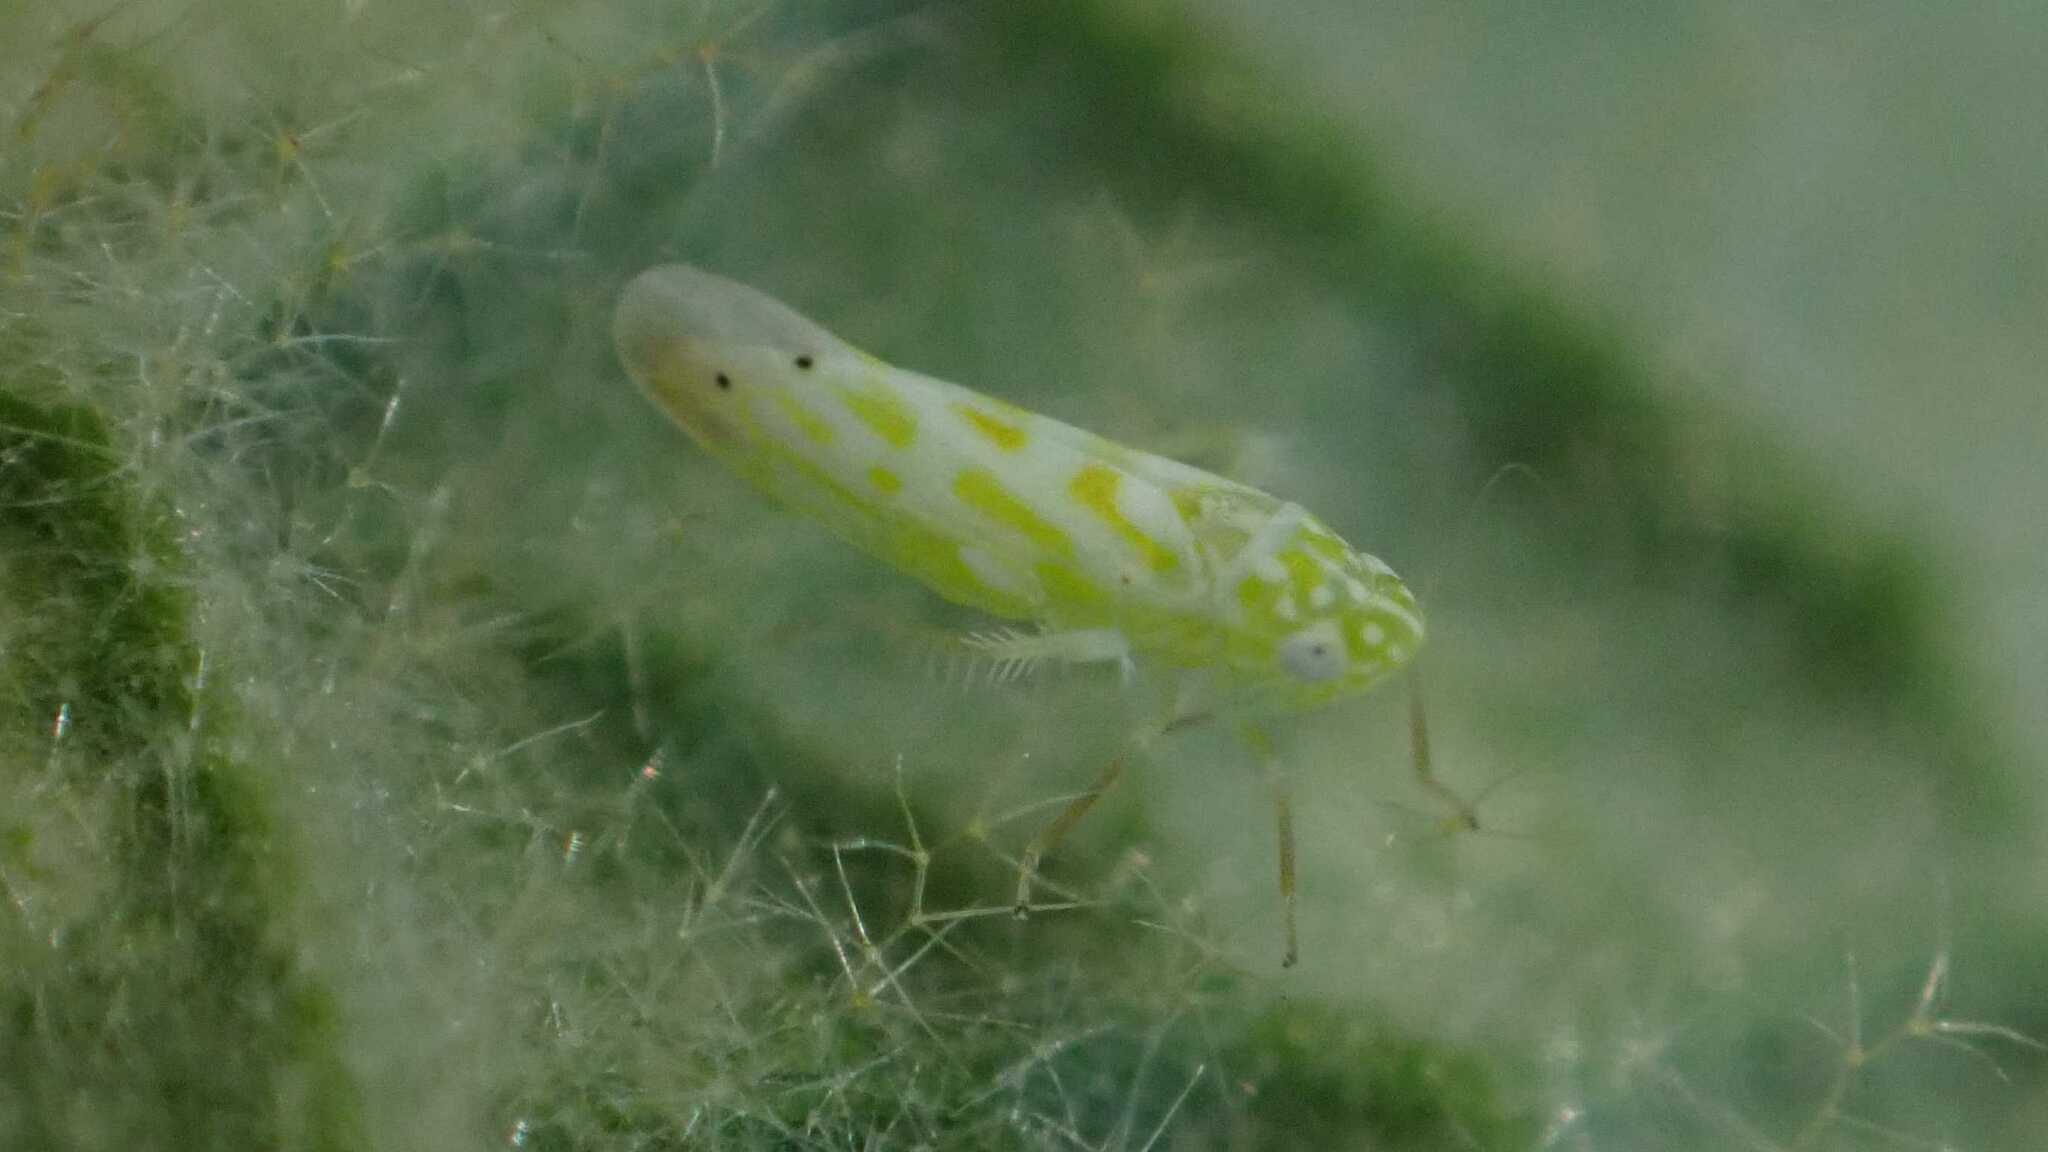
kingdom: Animalia
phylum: Arthropoda
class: Insecta
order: Hemiptera
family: Cicadellidae
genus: Micantulina
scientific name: Micantulina stigmatipennis
